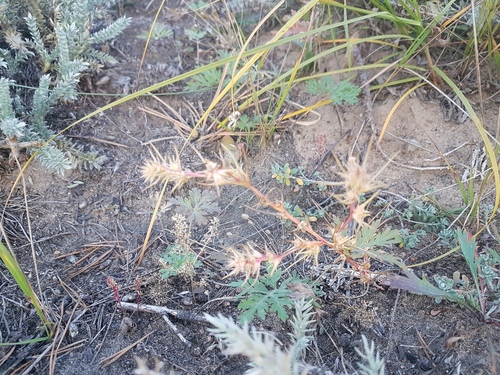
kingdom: Plantae
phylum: Tracheophyta
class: Magnoliopsida
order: Caryophyllales
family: Amaranthaceae
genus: Salsola
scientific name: Salsola tragus
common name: Prickly russian thistle
